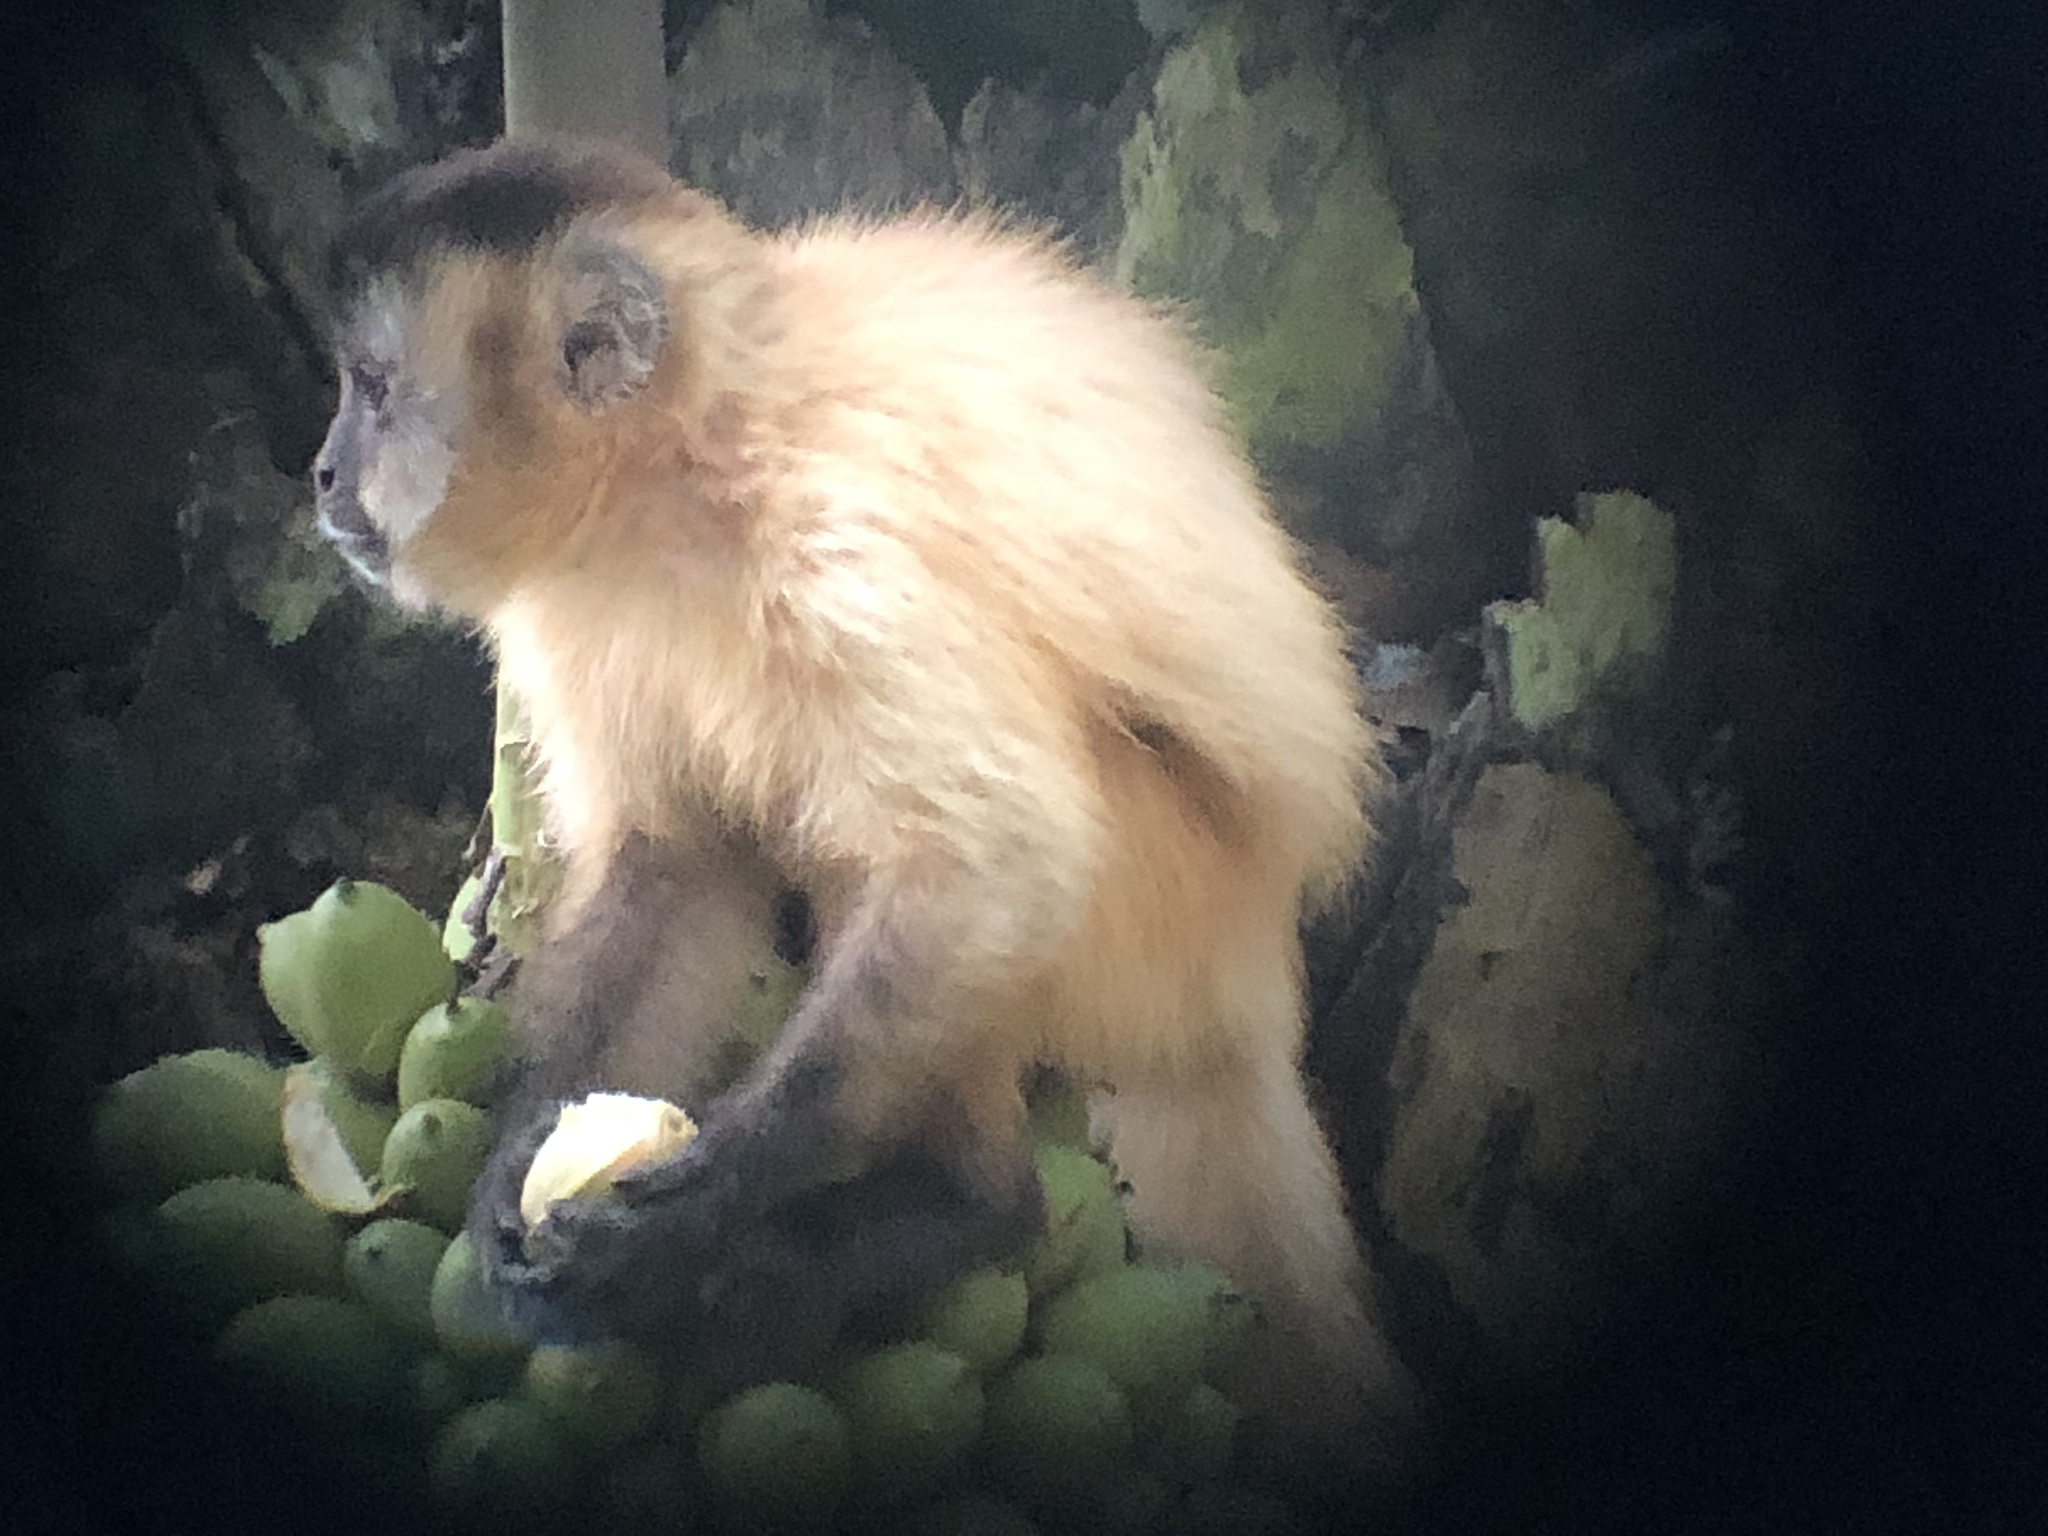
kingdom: Animalia
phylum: Chordata
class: Mammalia
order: Primates
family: Cebidae
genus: Sapajus
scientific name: Sapajus cay
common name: Hooded capuchin
